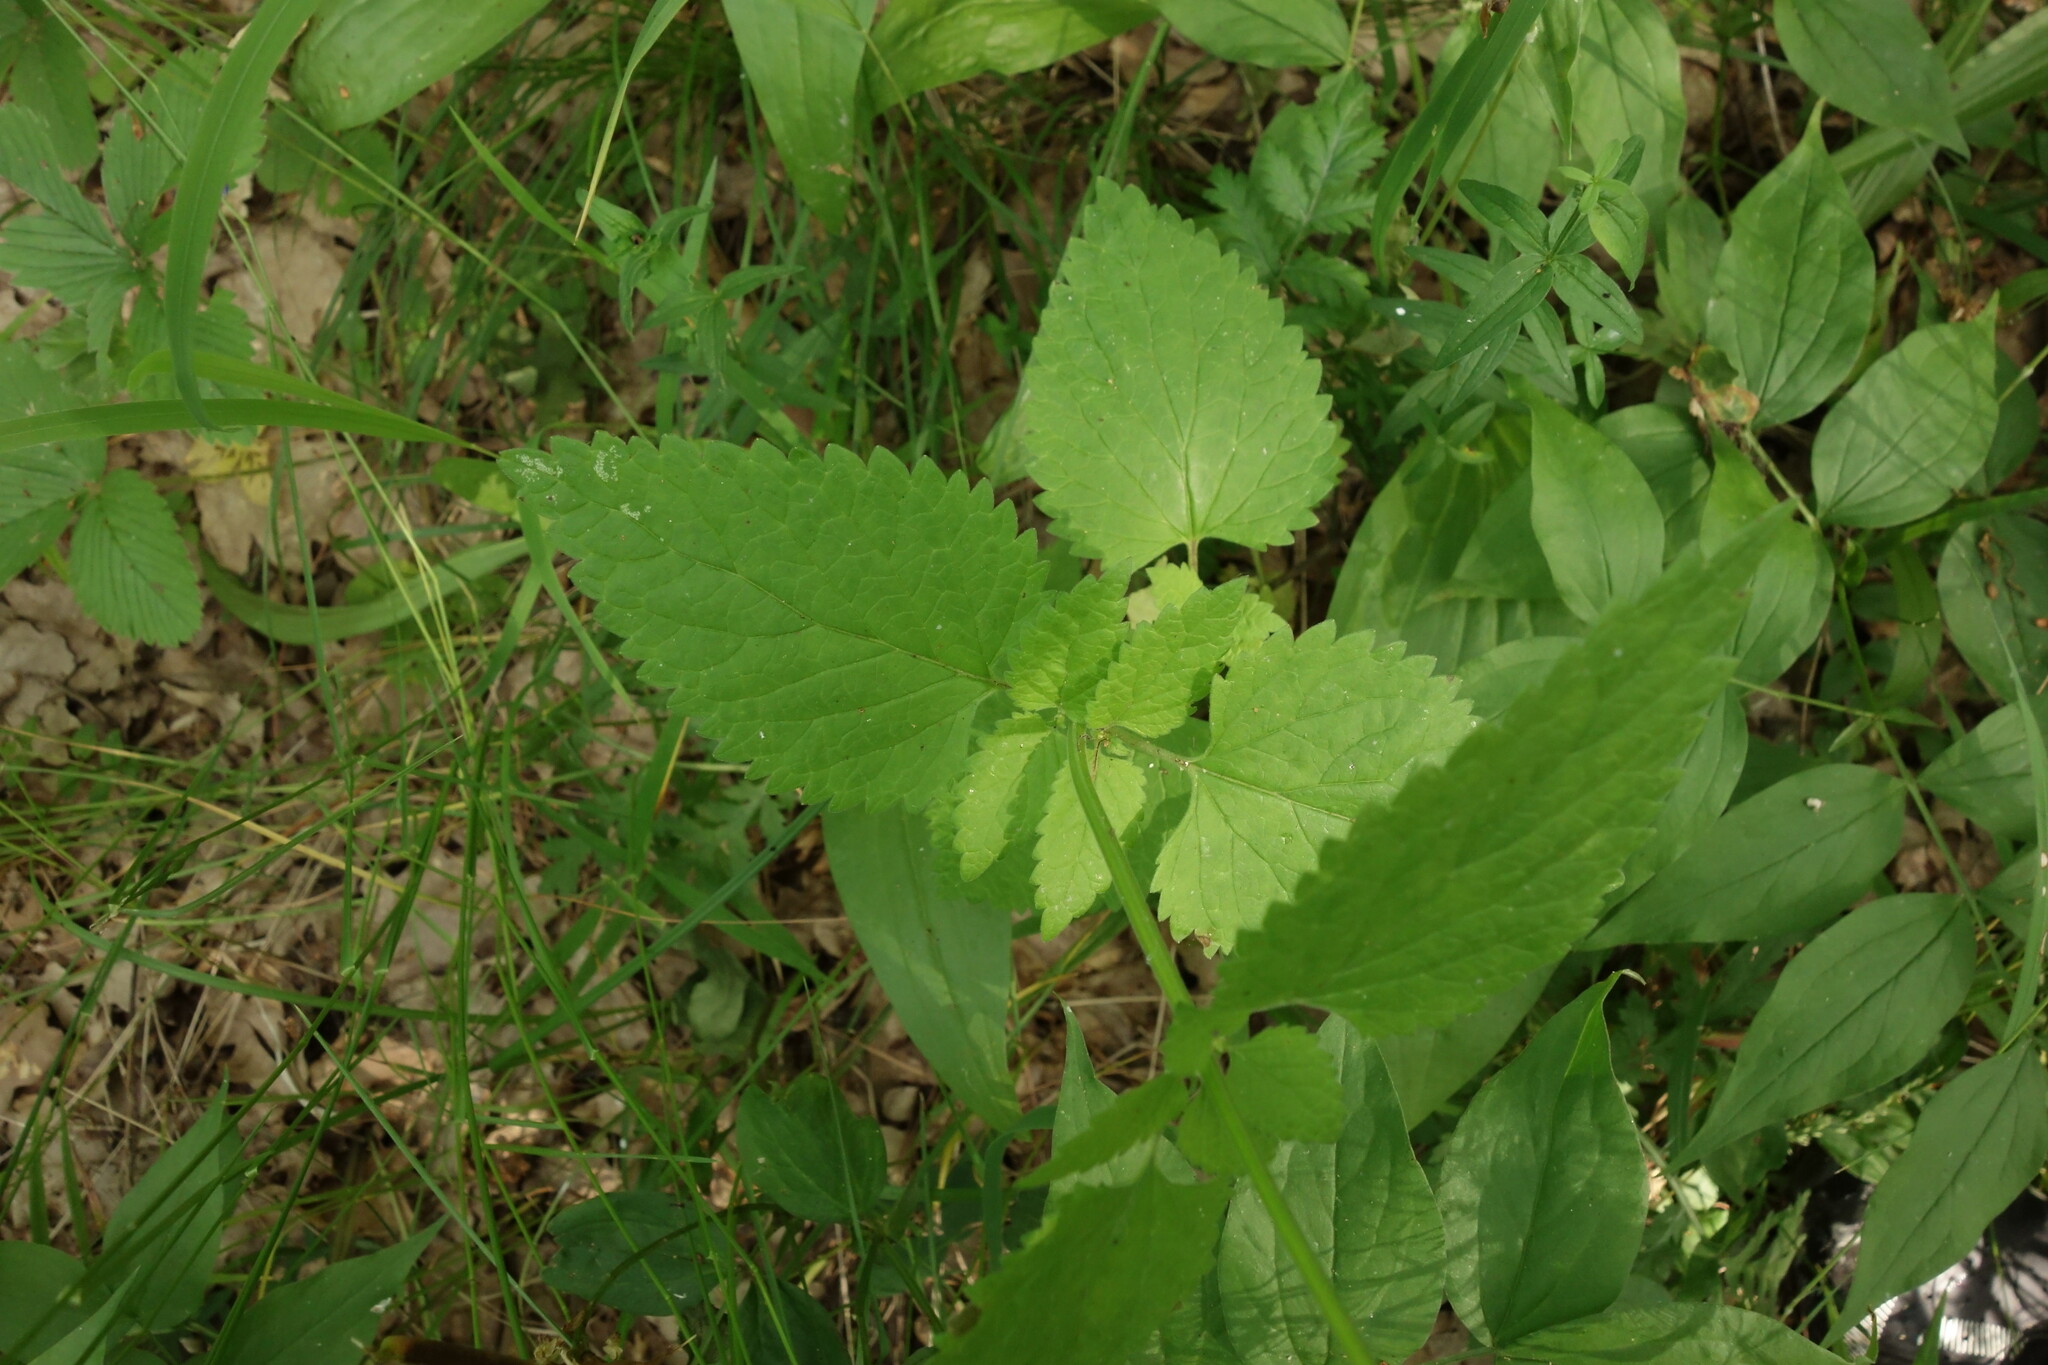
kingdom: Plantae
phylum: Tracheophyta
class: Magnoliopsida
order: Lamiales
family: Lamiaceae
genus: Scutellaria
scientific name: Scutellaria altissima
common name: Somerset skullcap
